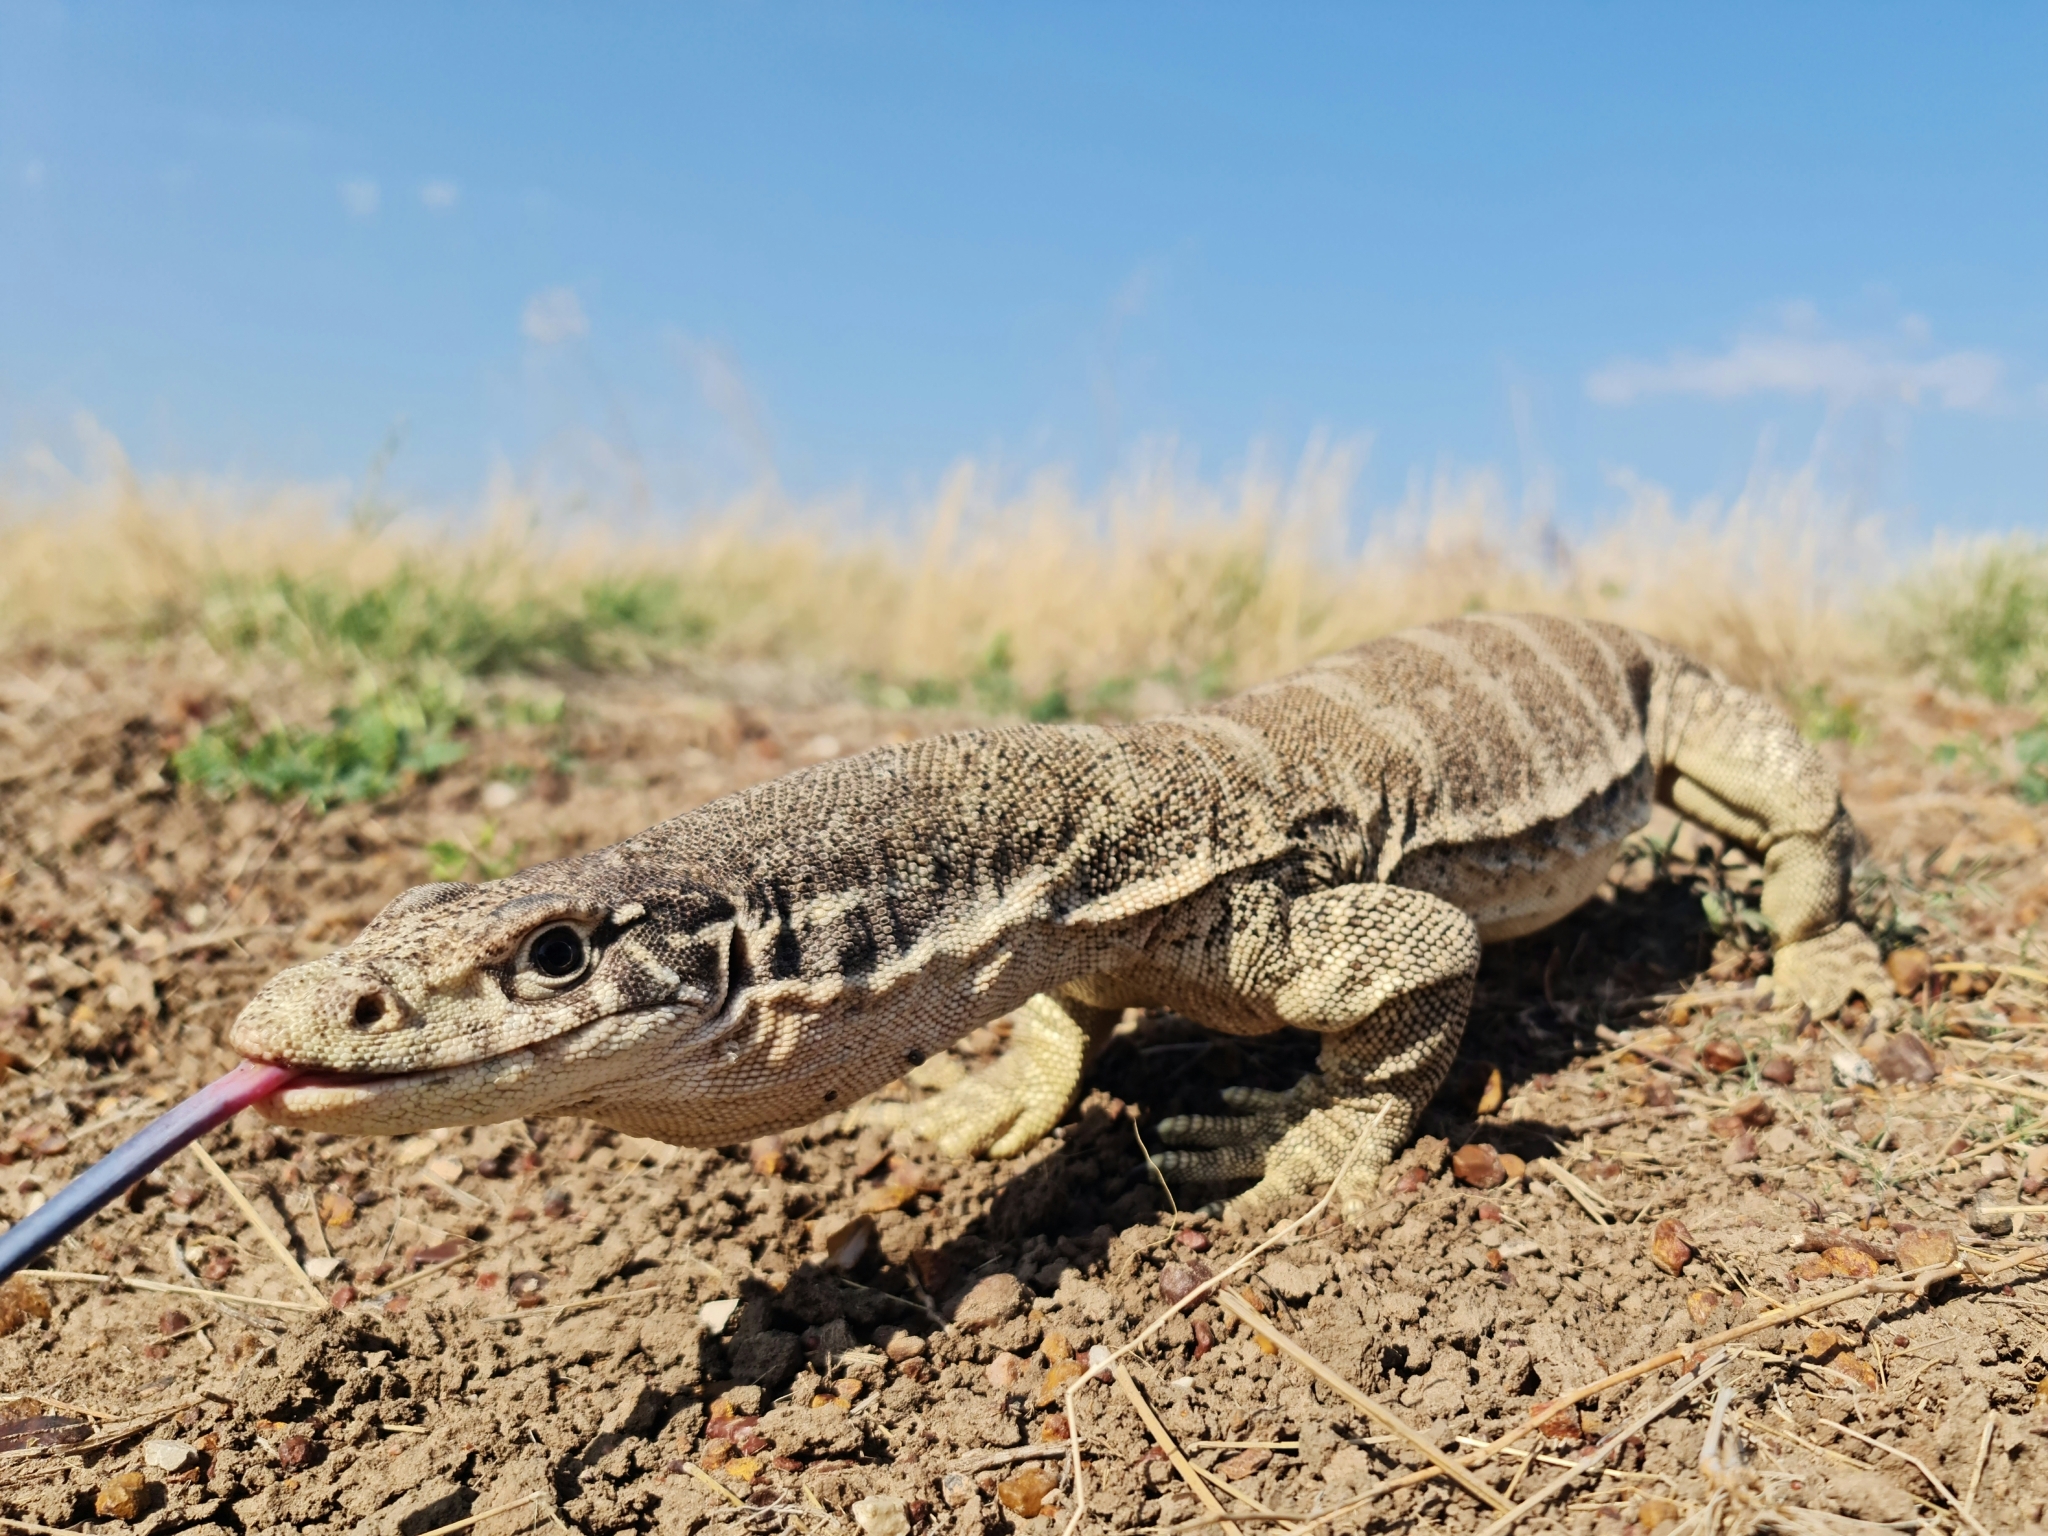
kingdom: Animalia
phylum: Chordata
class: Squamata
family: Varanidae
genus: Varanus
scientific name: Varanus spenceri
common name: Spencer's monitor
